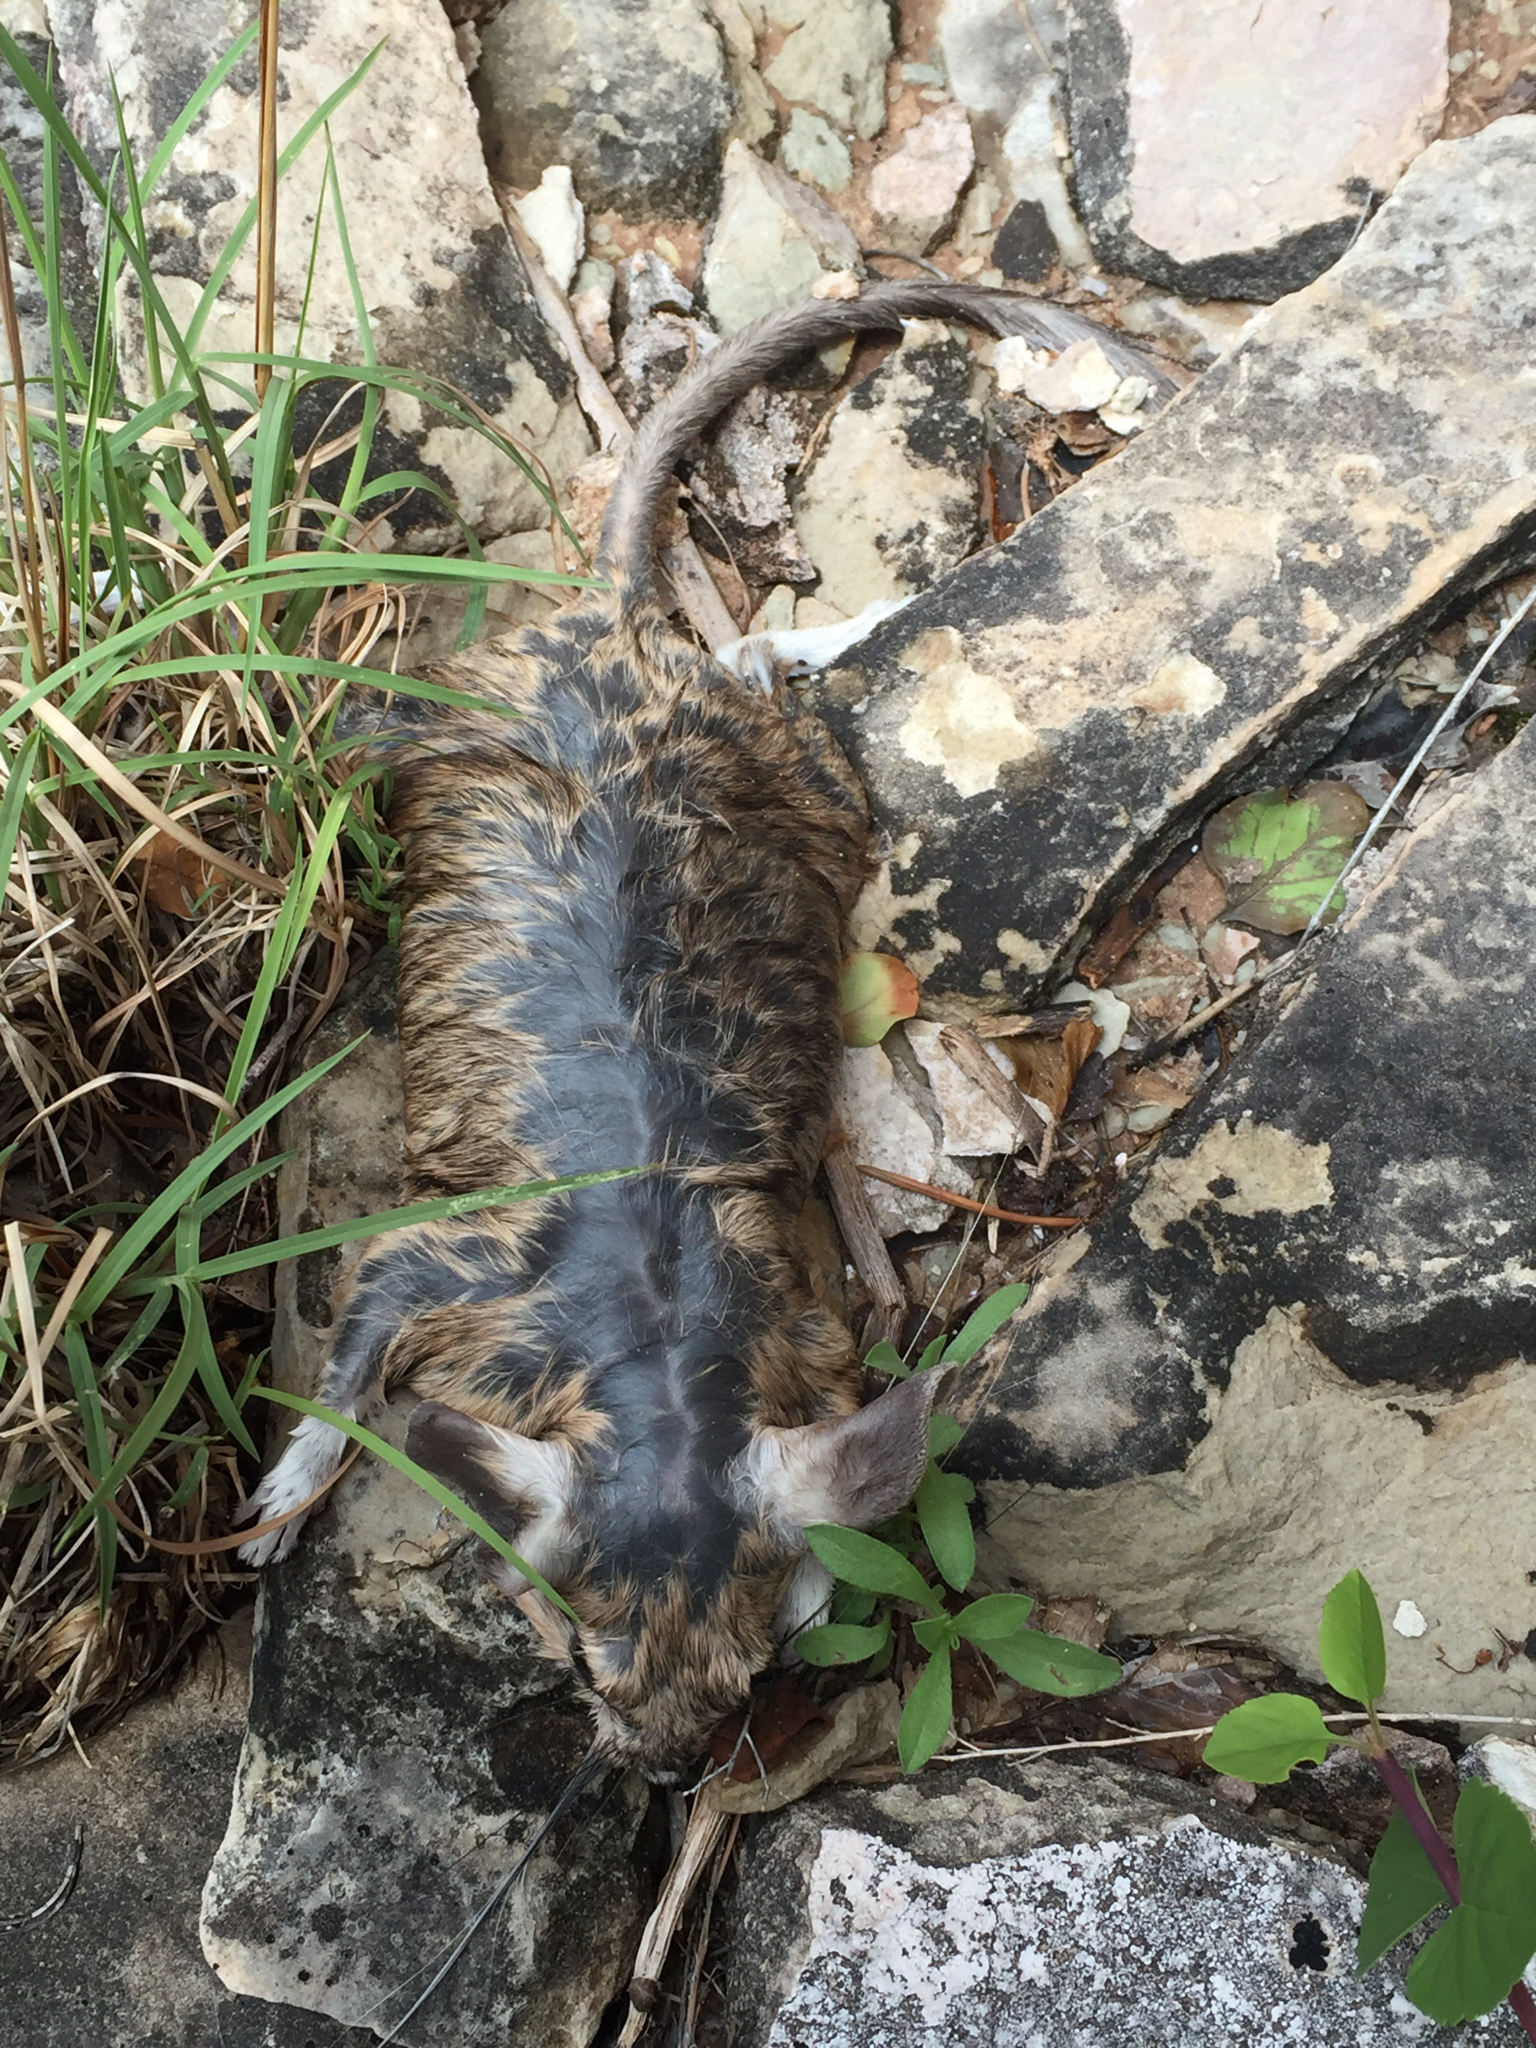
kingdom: Animalia
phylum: Chordata
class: Mammalia
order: Rodentia
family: Cricetidae
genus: Neotoma
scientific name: Neotoma cinerea
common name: Bushy-tailed woodrat
